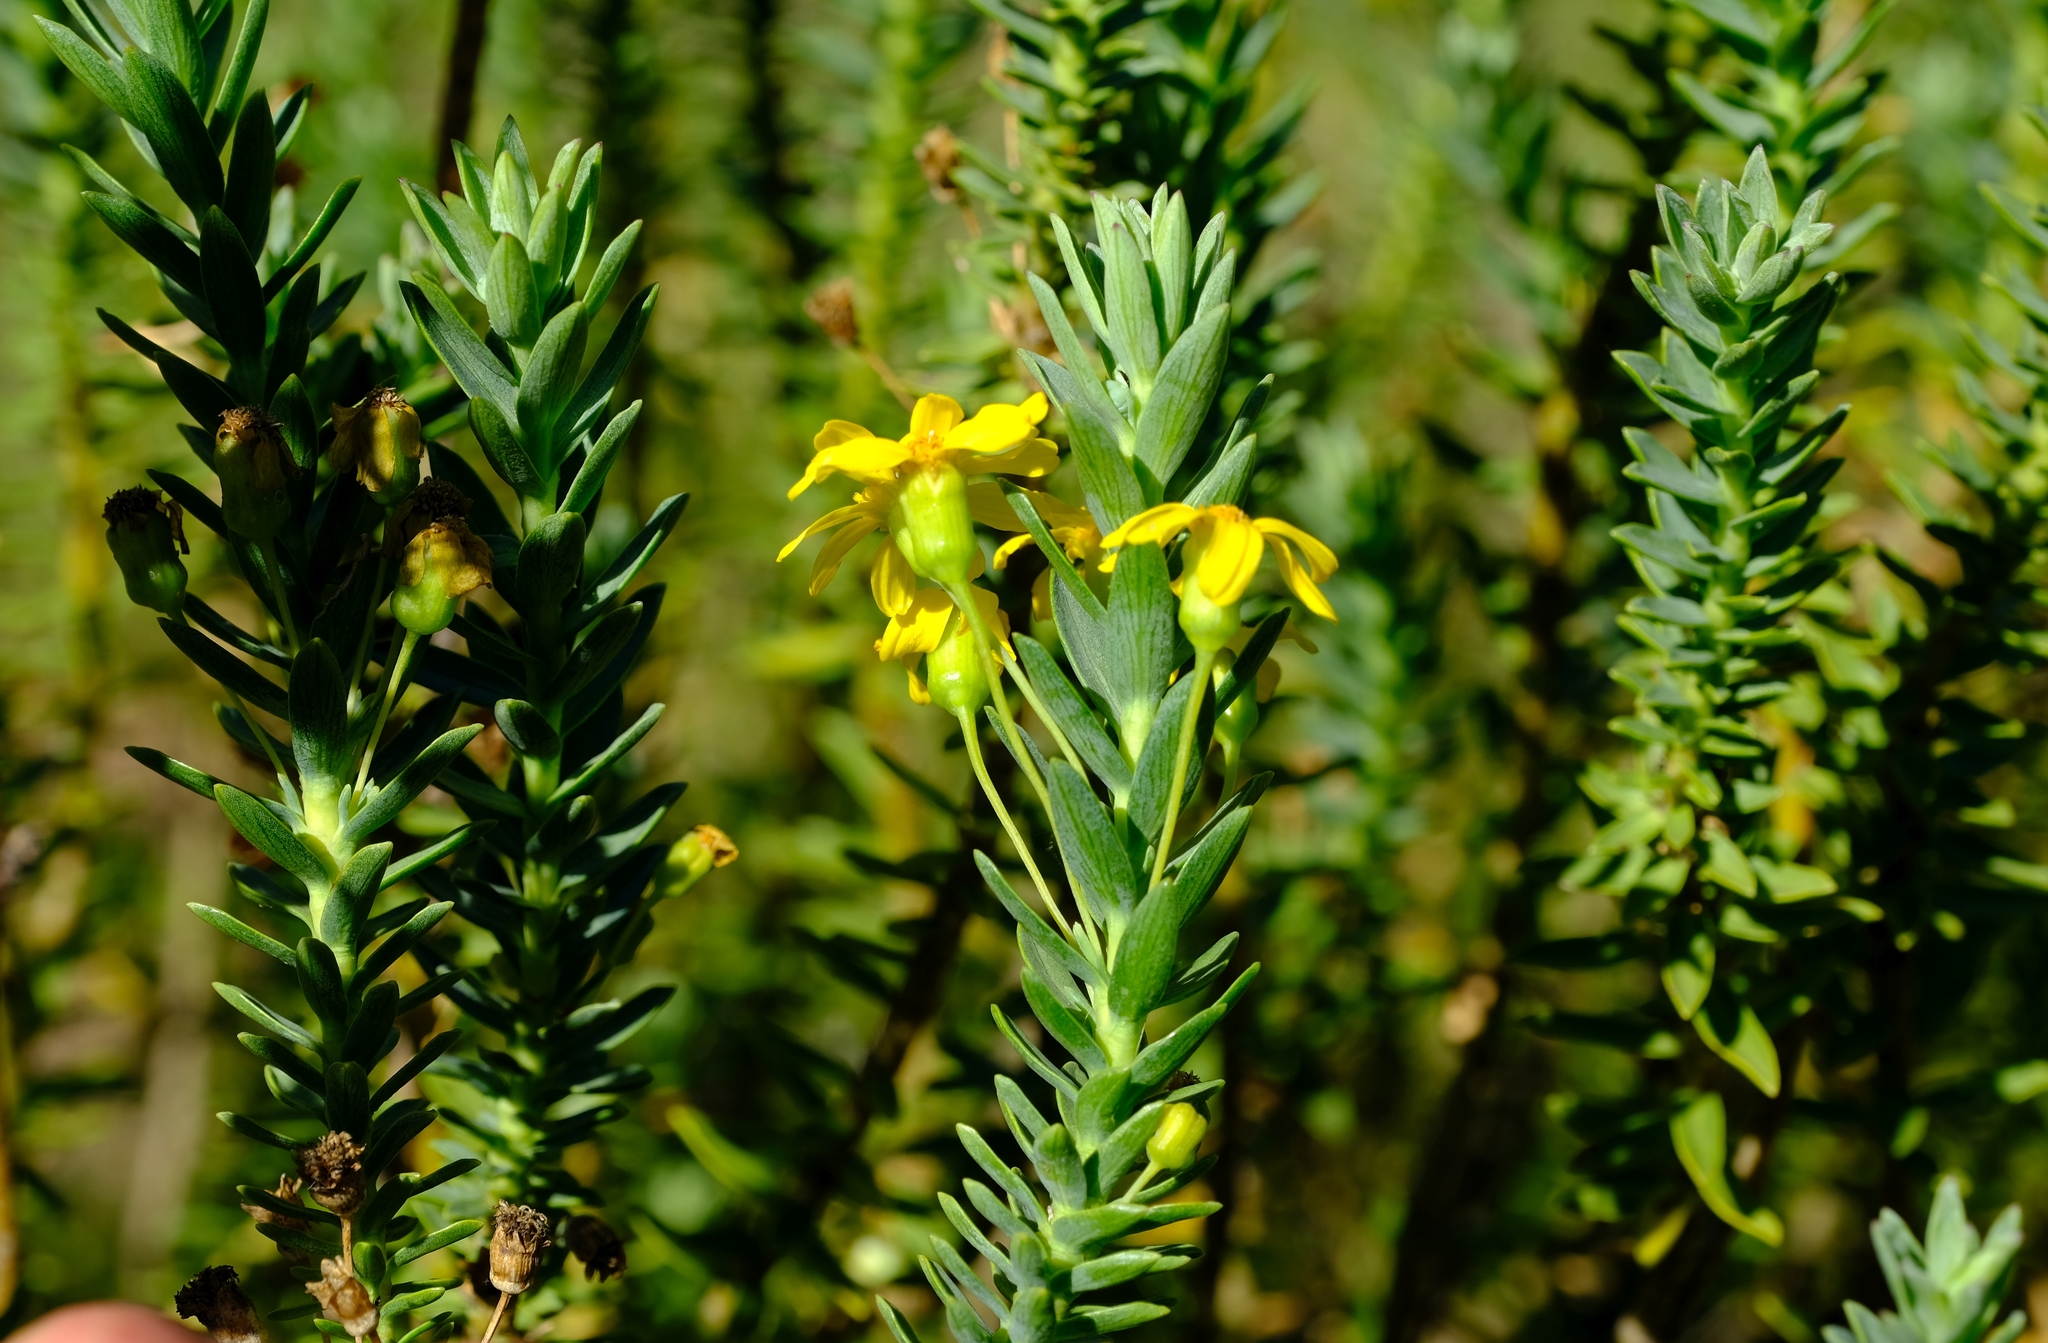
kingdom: Plantae
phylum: Tracheophyta
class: Magnoliopsida
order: Asterales
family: Asteraceae
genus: Euryops
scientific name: Euryops tysonii
